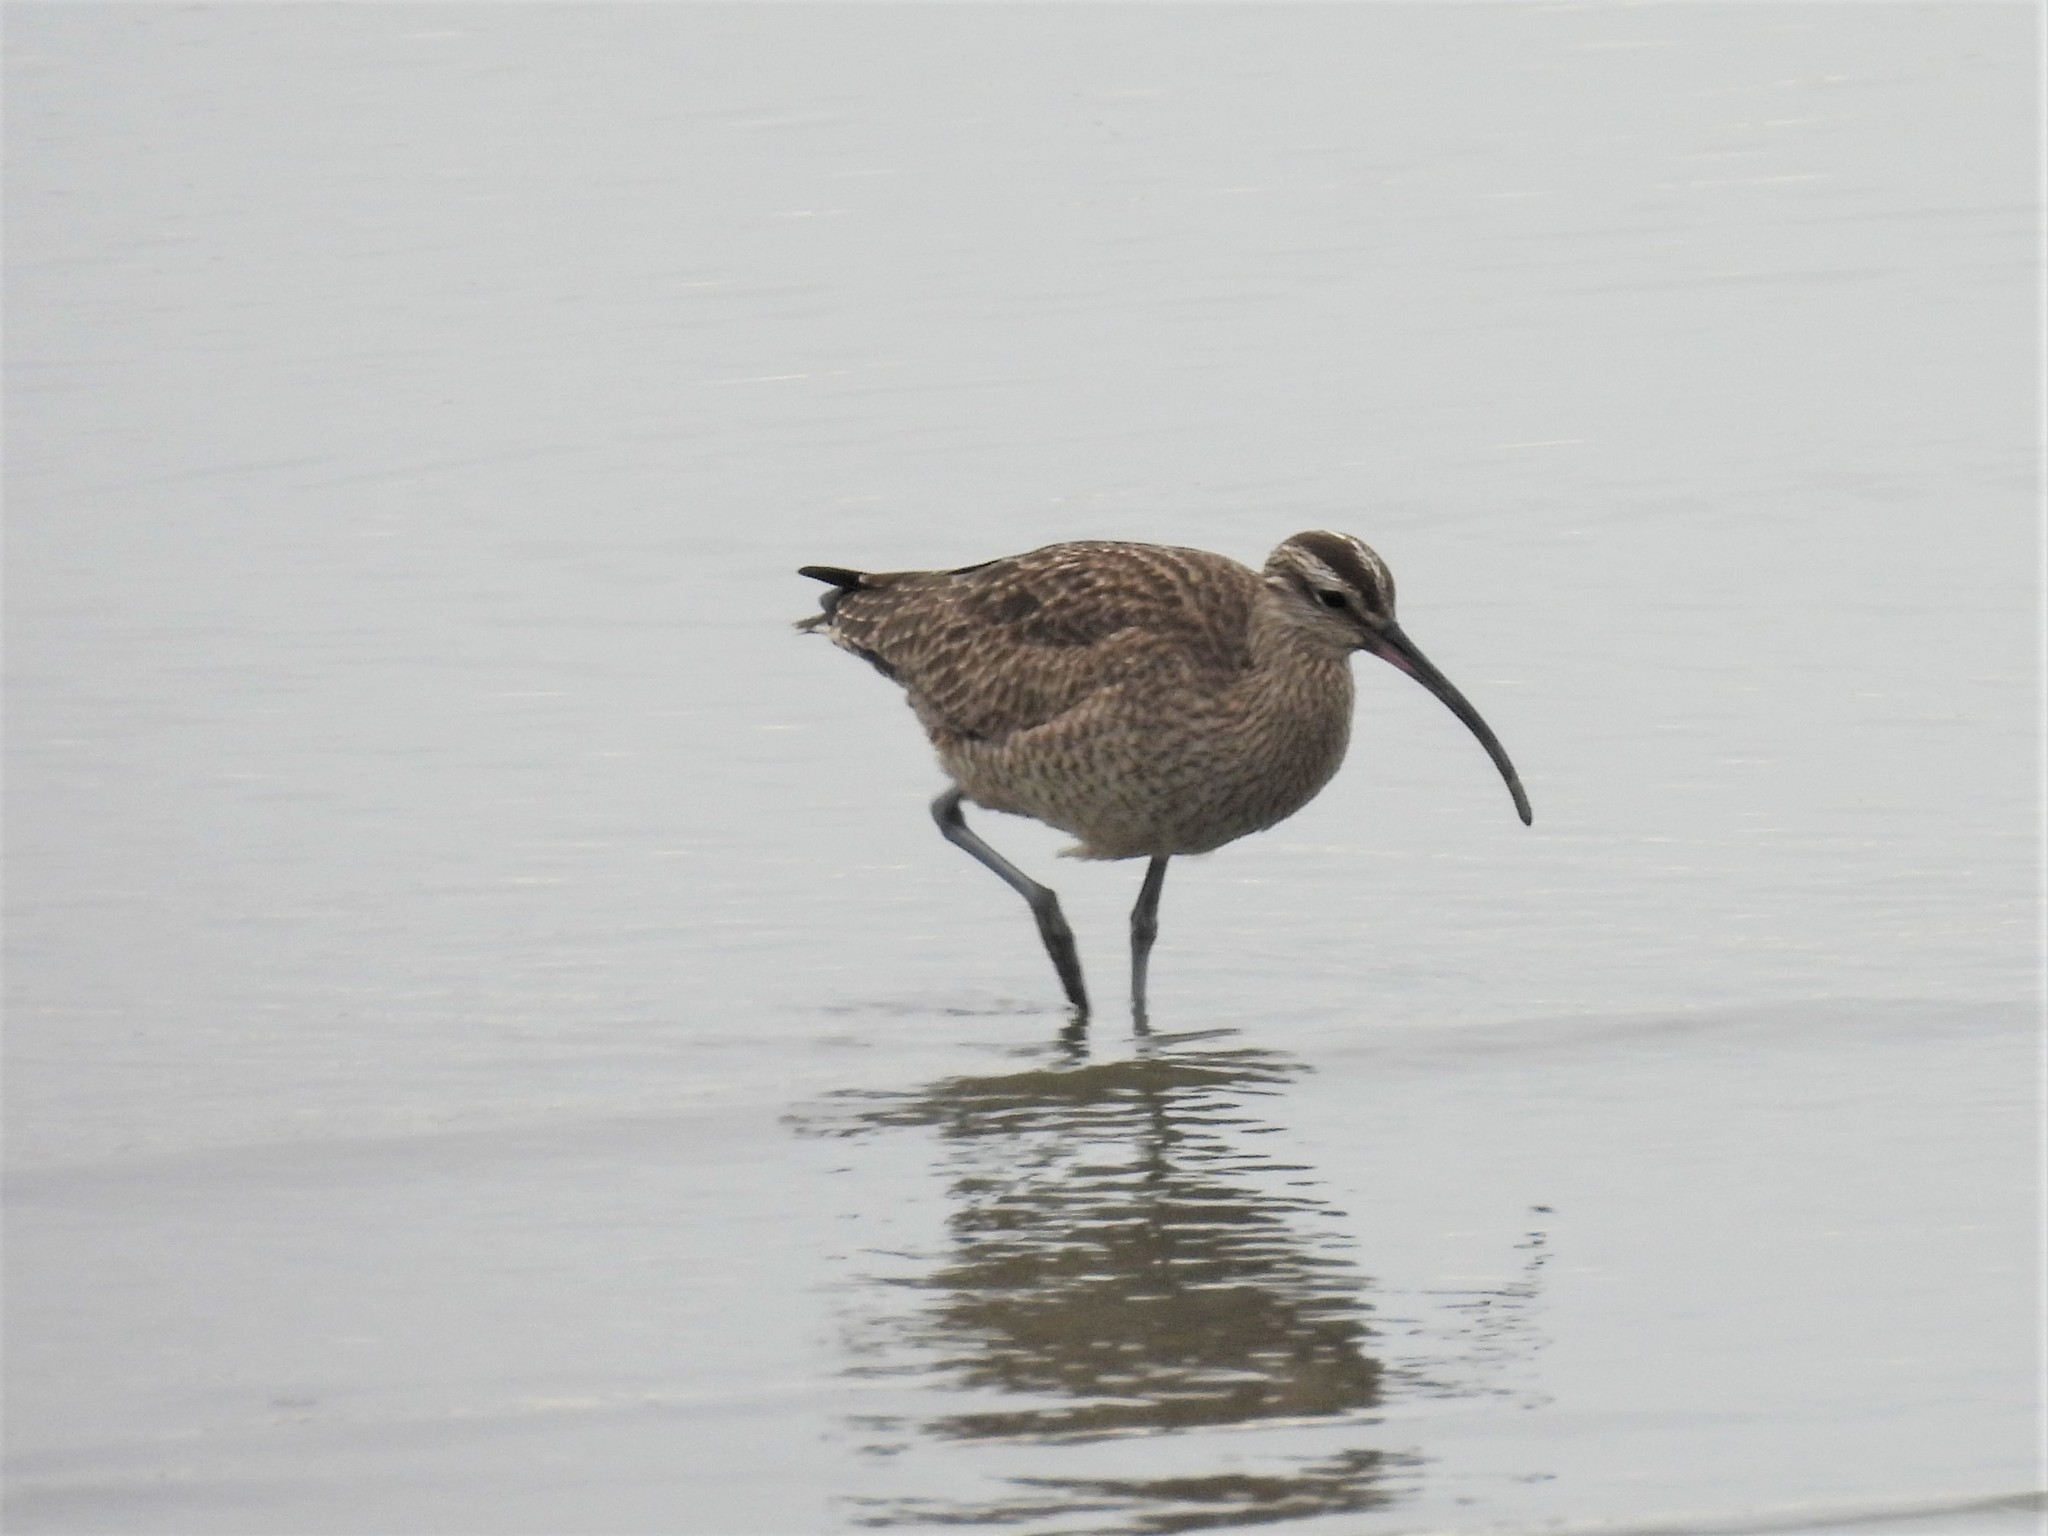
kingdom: Animalia
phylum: Chordata
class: Aves
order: Charadriiformes
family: Scolopacidae
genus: Numenius
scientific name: Numenius phaeopus
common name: Whimbrel
